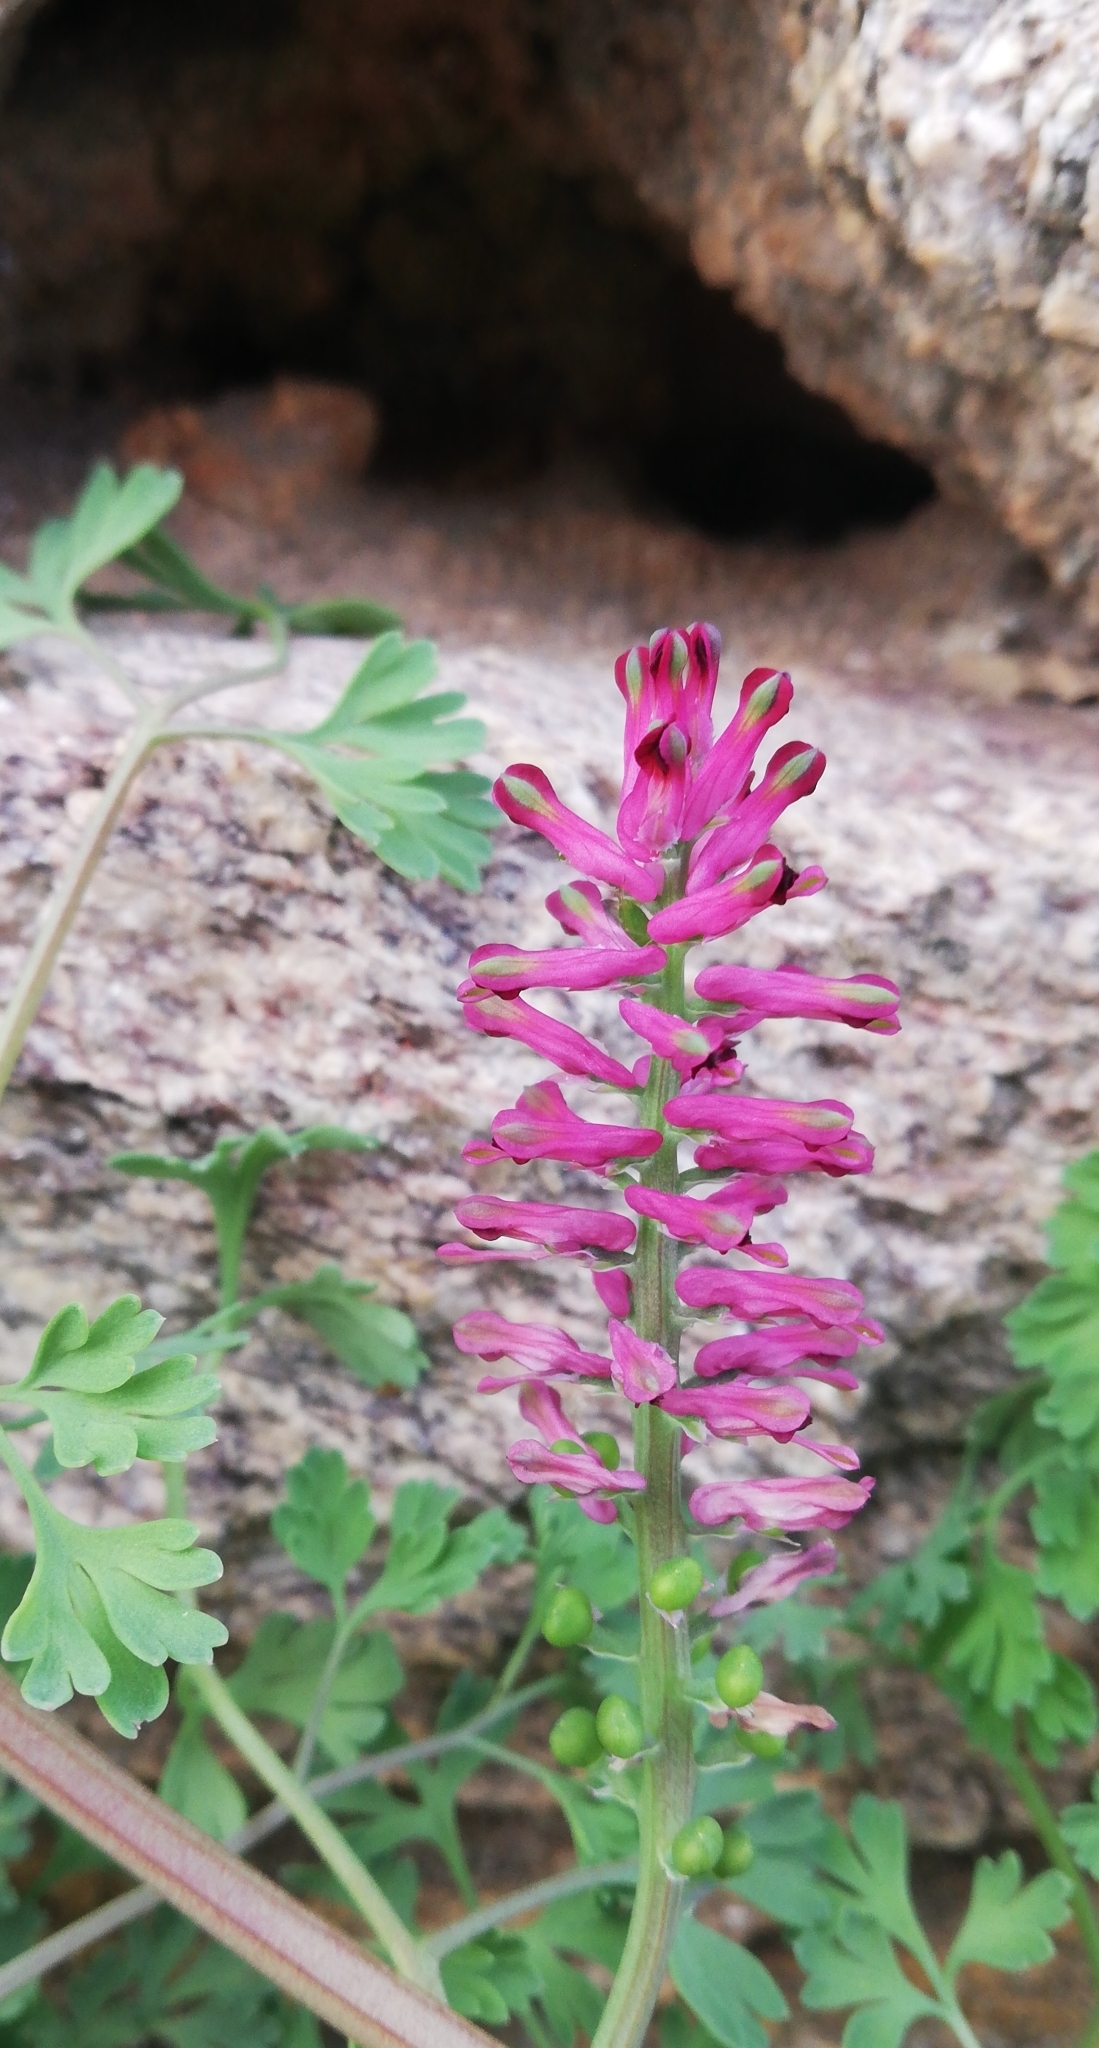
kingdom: Plantae
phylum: Tracheophyta
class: Magnoliopsida
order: Ranunculales
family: Papaveraceae
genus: Fumaria
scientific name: Fumaria officinalis
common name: Common fumitory
